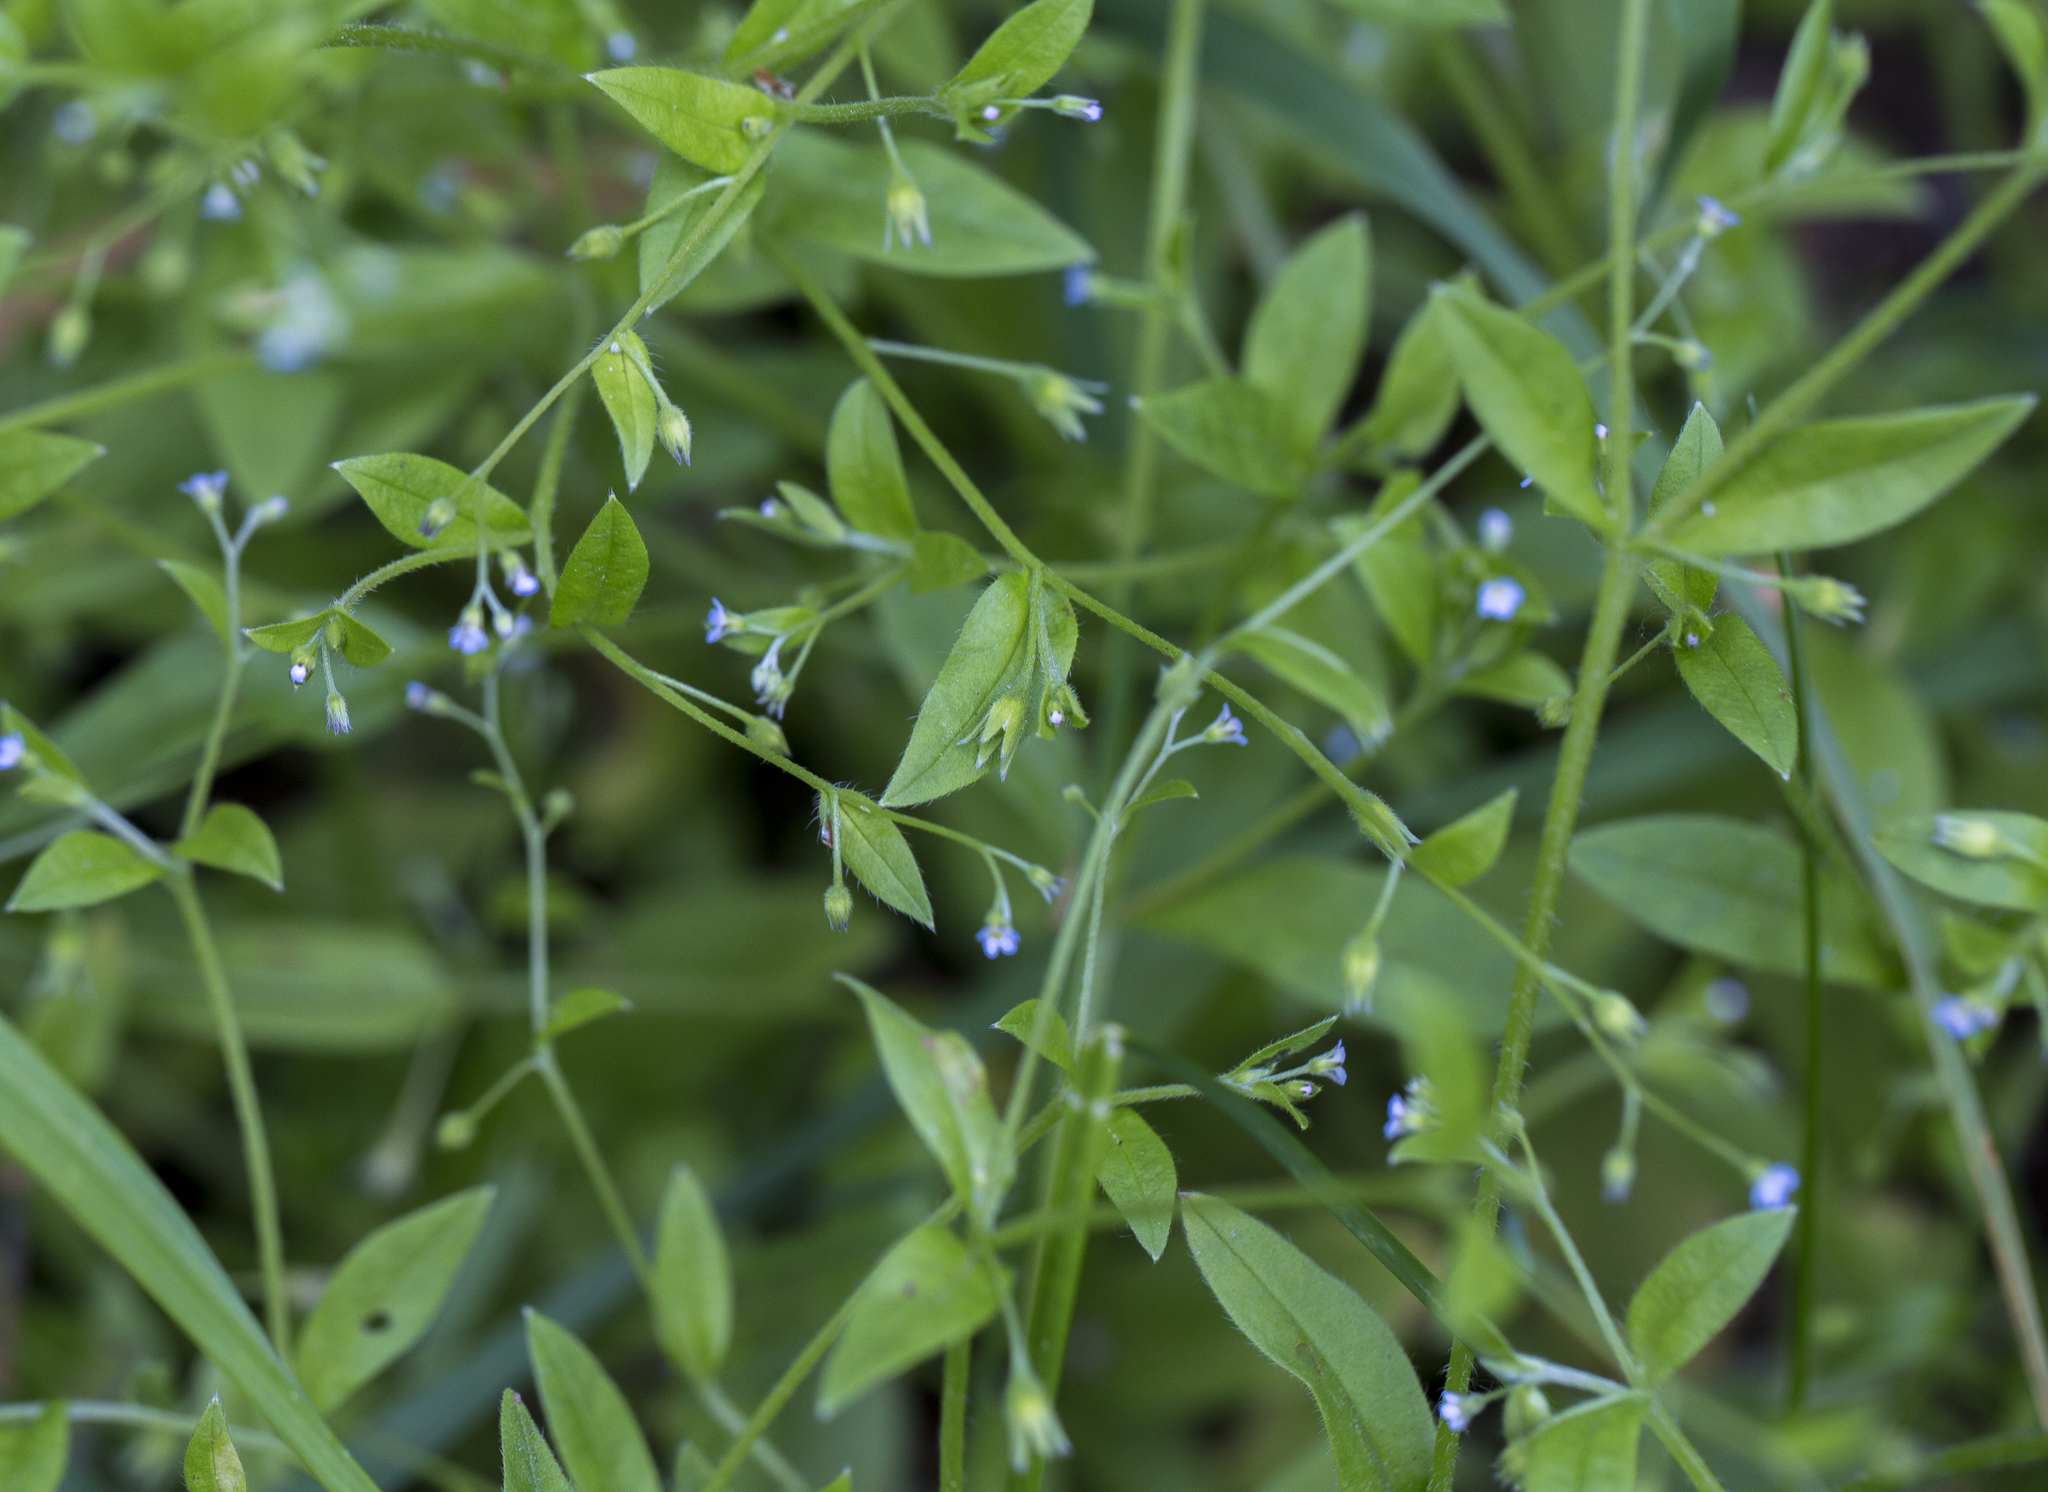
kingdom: Plantae
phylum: Tracheophyta
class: Magnoliopsida
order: Boraginales
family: Boraginaceae
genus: Myosotis
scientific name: Myosotis sparsiflora
